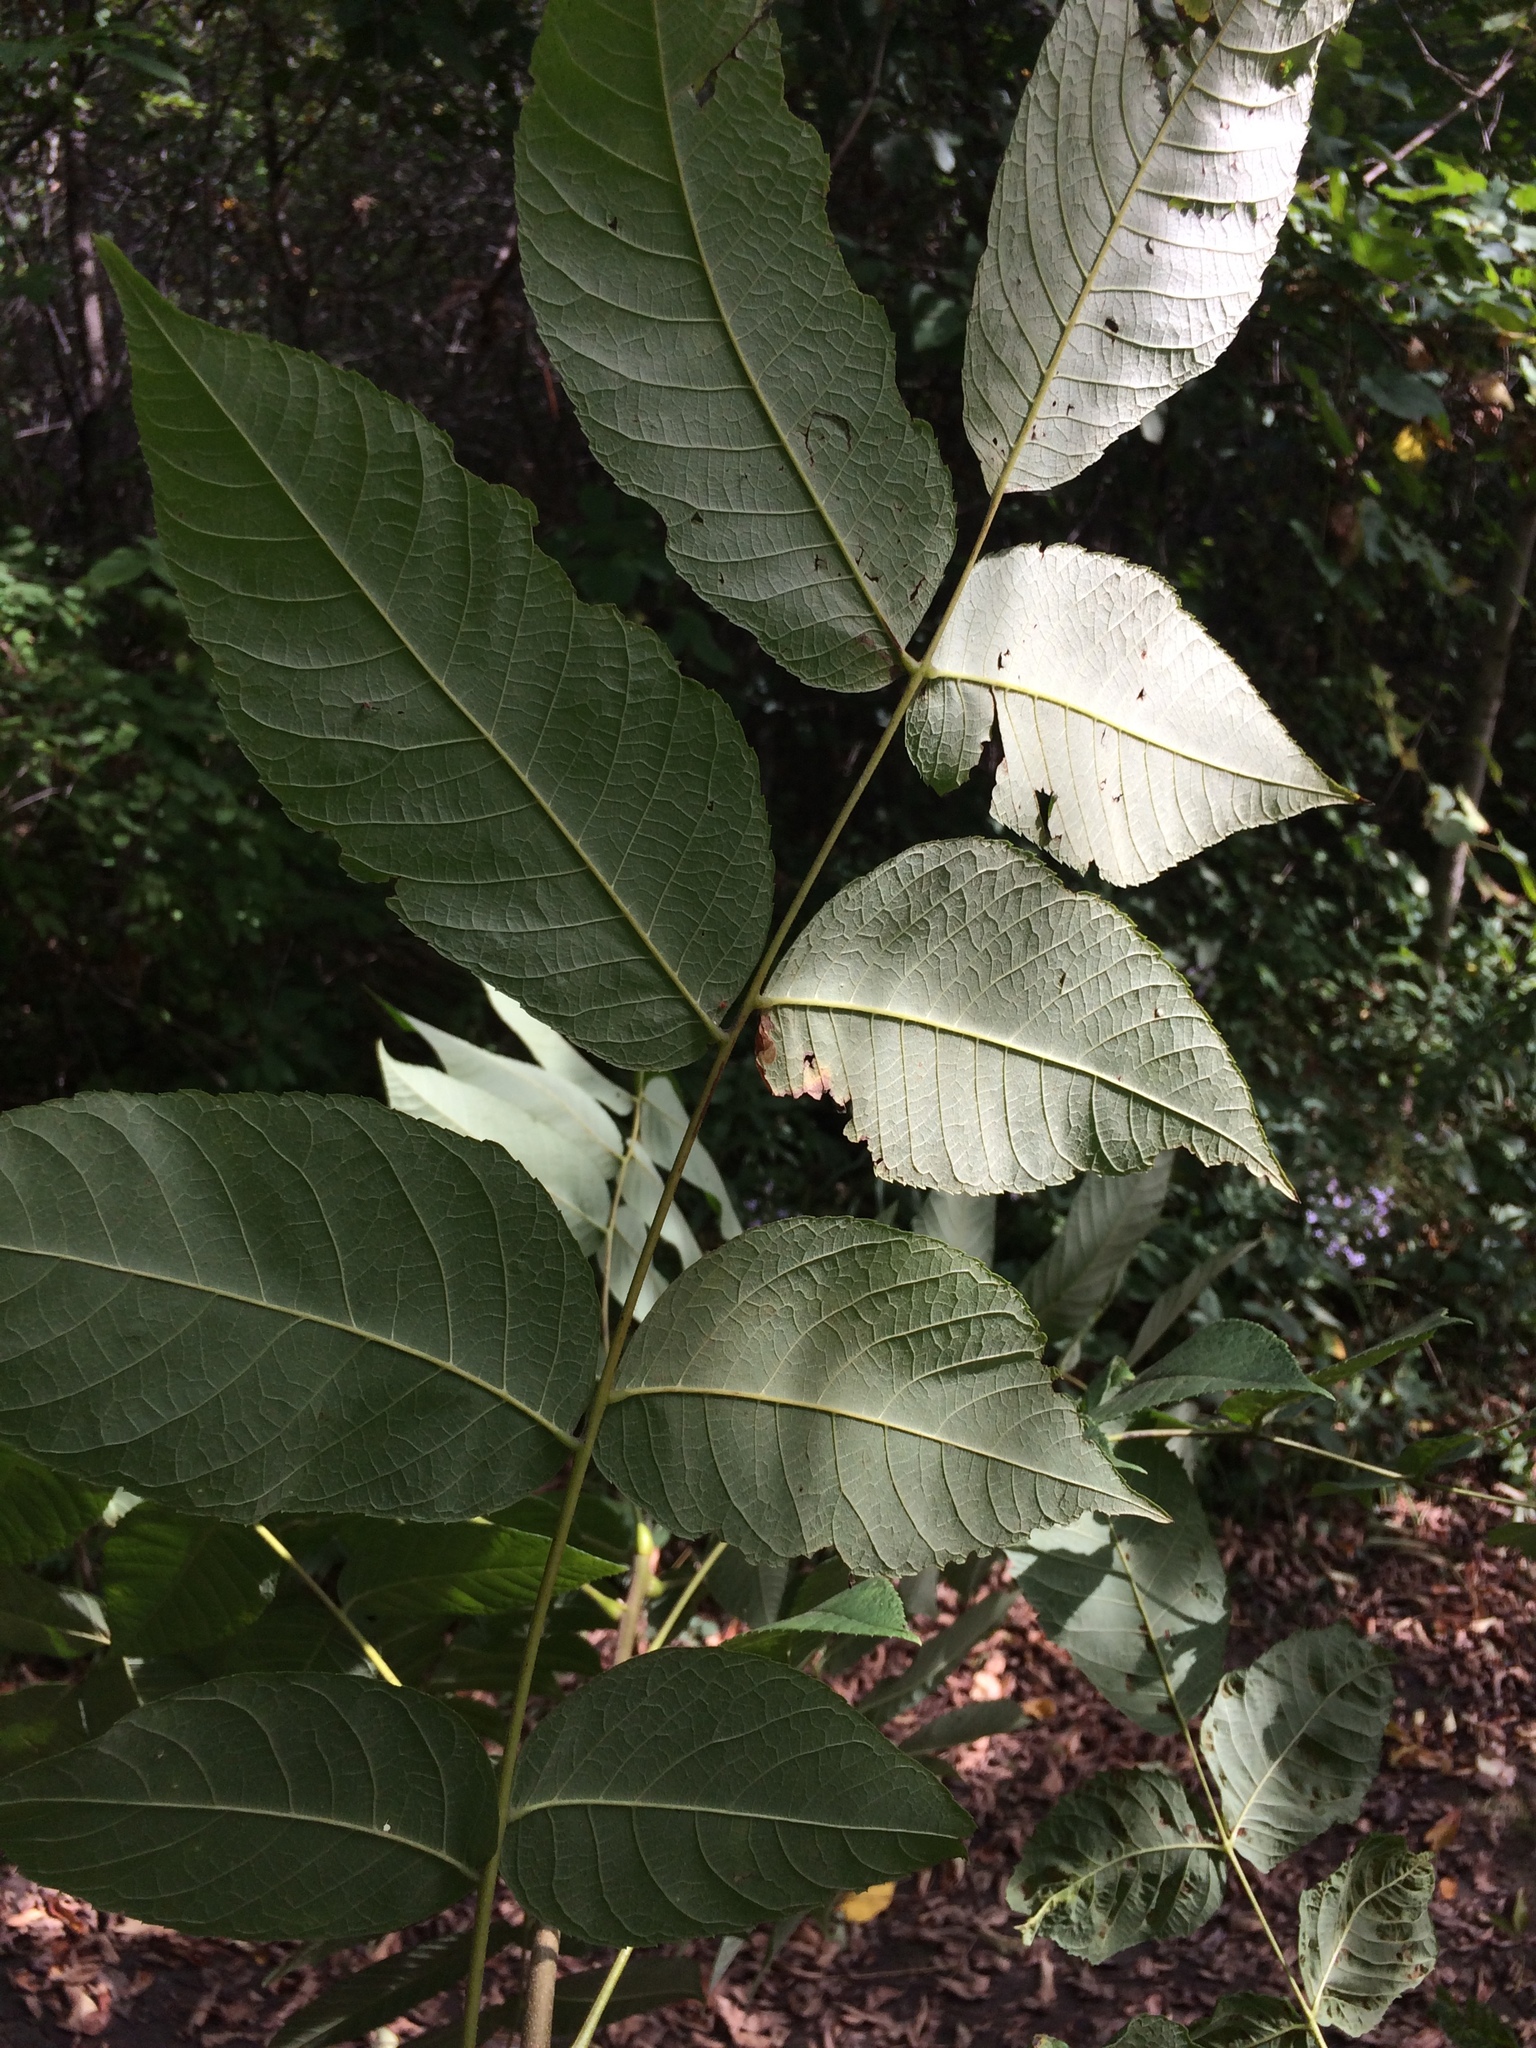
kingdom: Plantae
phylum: Tracheophyta
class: Magnoliopsida
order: Fagales
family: Juglandaceae
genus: Juglans
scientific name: Juglans cinerea
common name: Butternut
